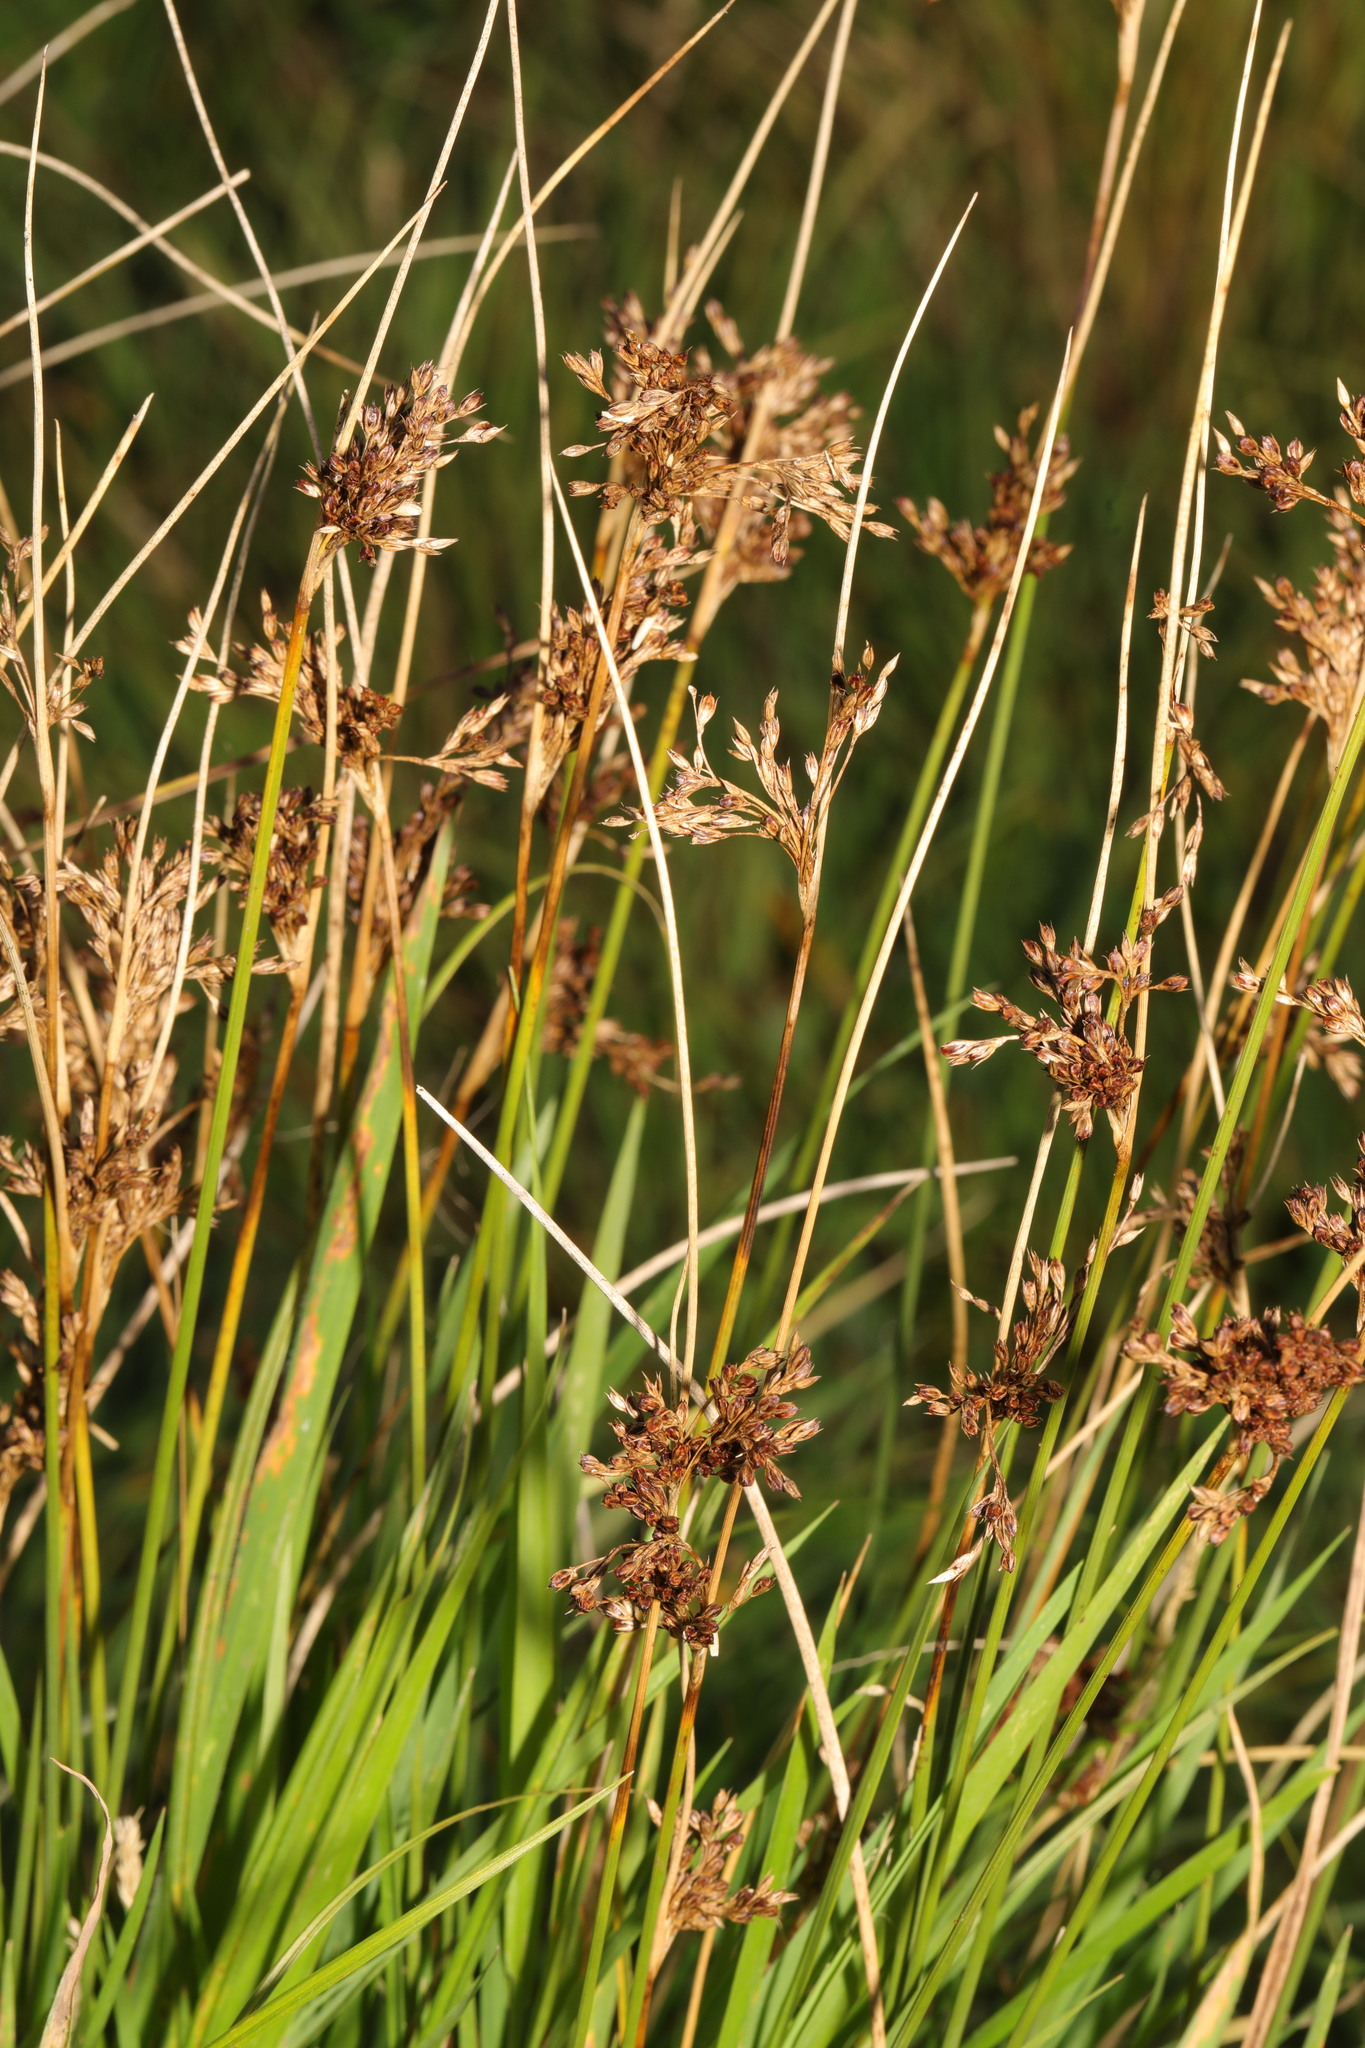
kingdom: Plantae
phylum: Tracheophyta
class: Liliopsida
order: Poales
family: Juncaceae
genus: Juncus
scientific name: Juncus effusus
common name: Soft rush
